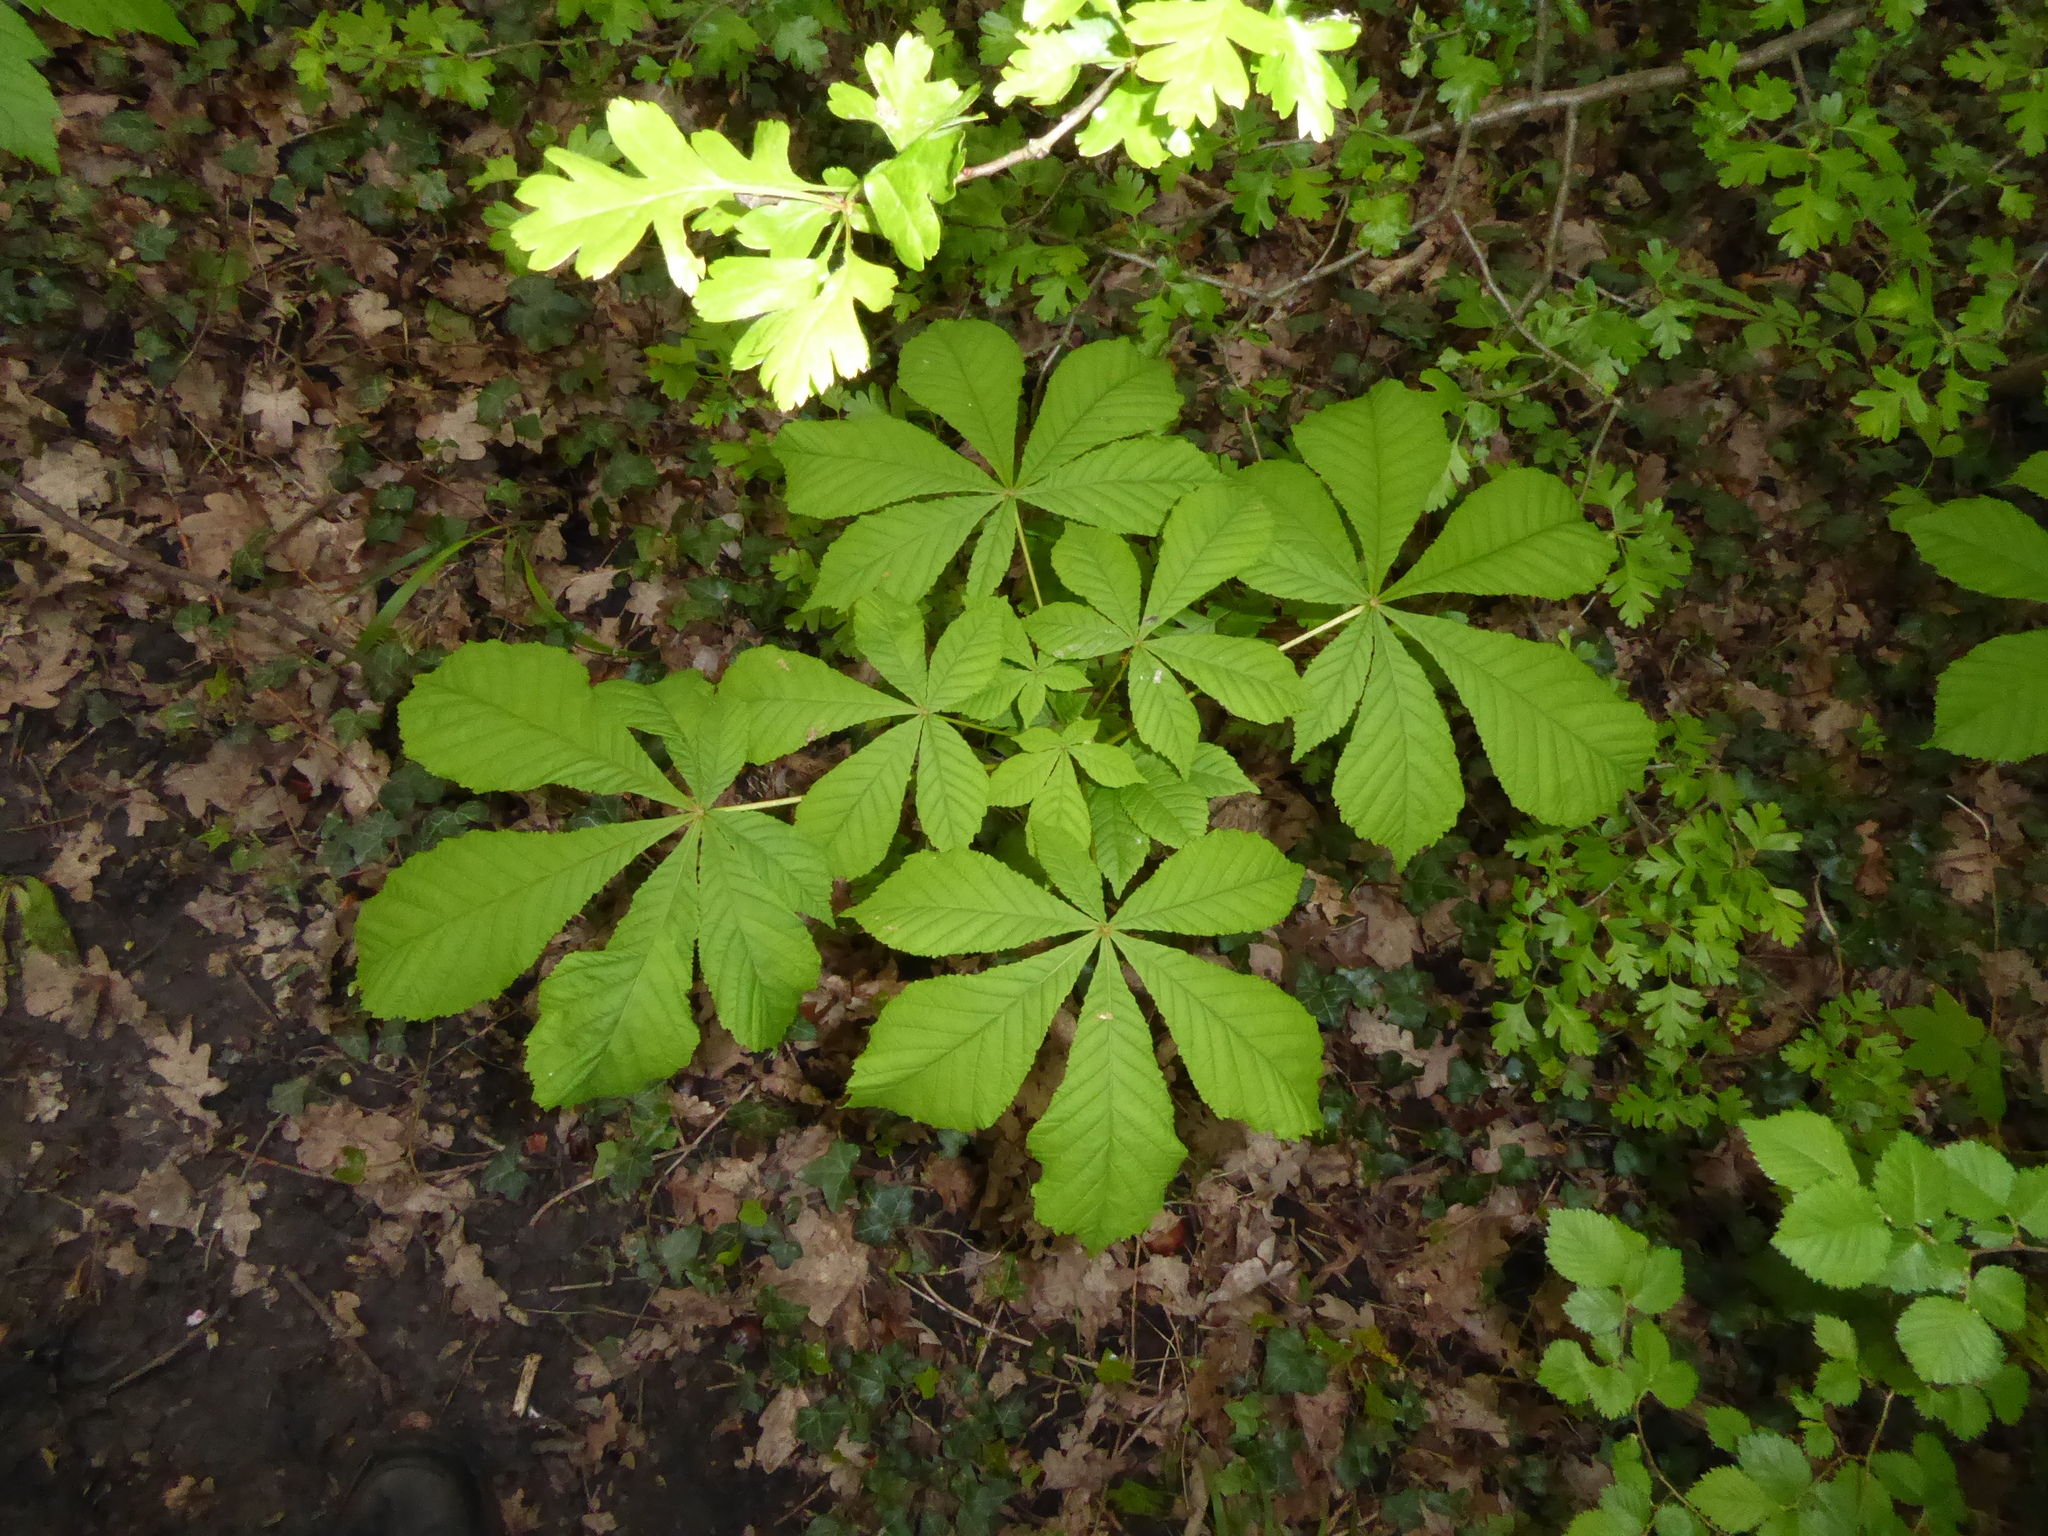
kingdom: Plantae
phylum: Tracheophyta
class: Magnoliopsida
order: Sapindales
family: Sapindaceae
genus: Aesculus
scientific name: Aesculus hippocastanum
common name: Horse-chestnut
